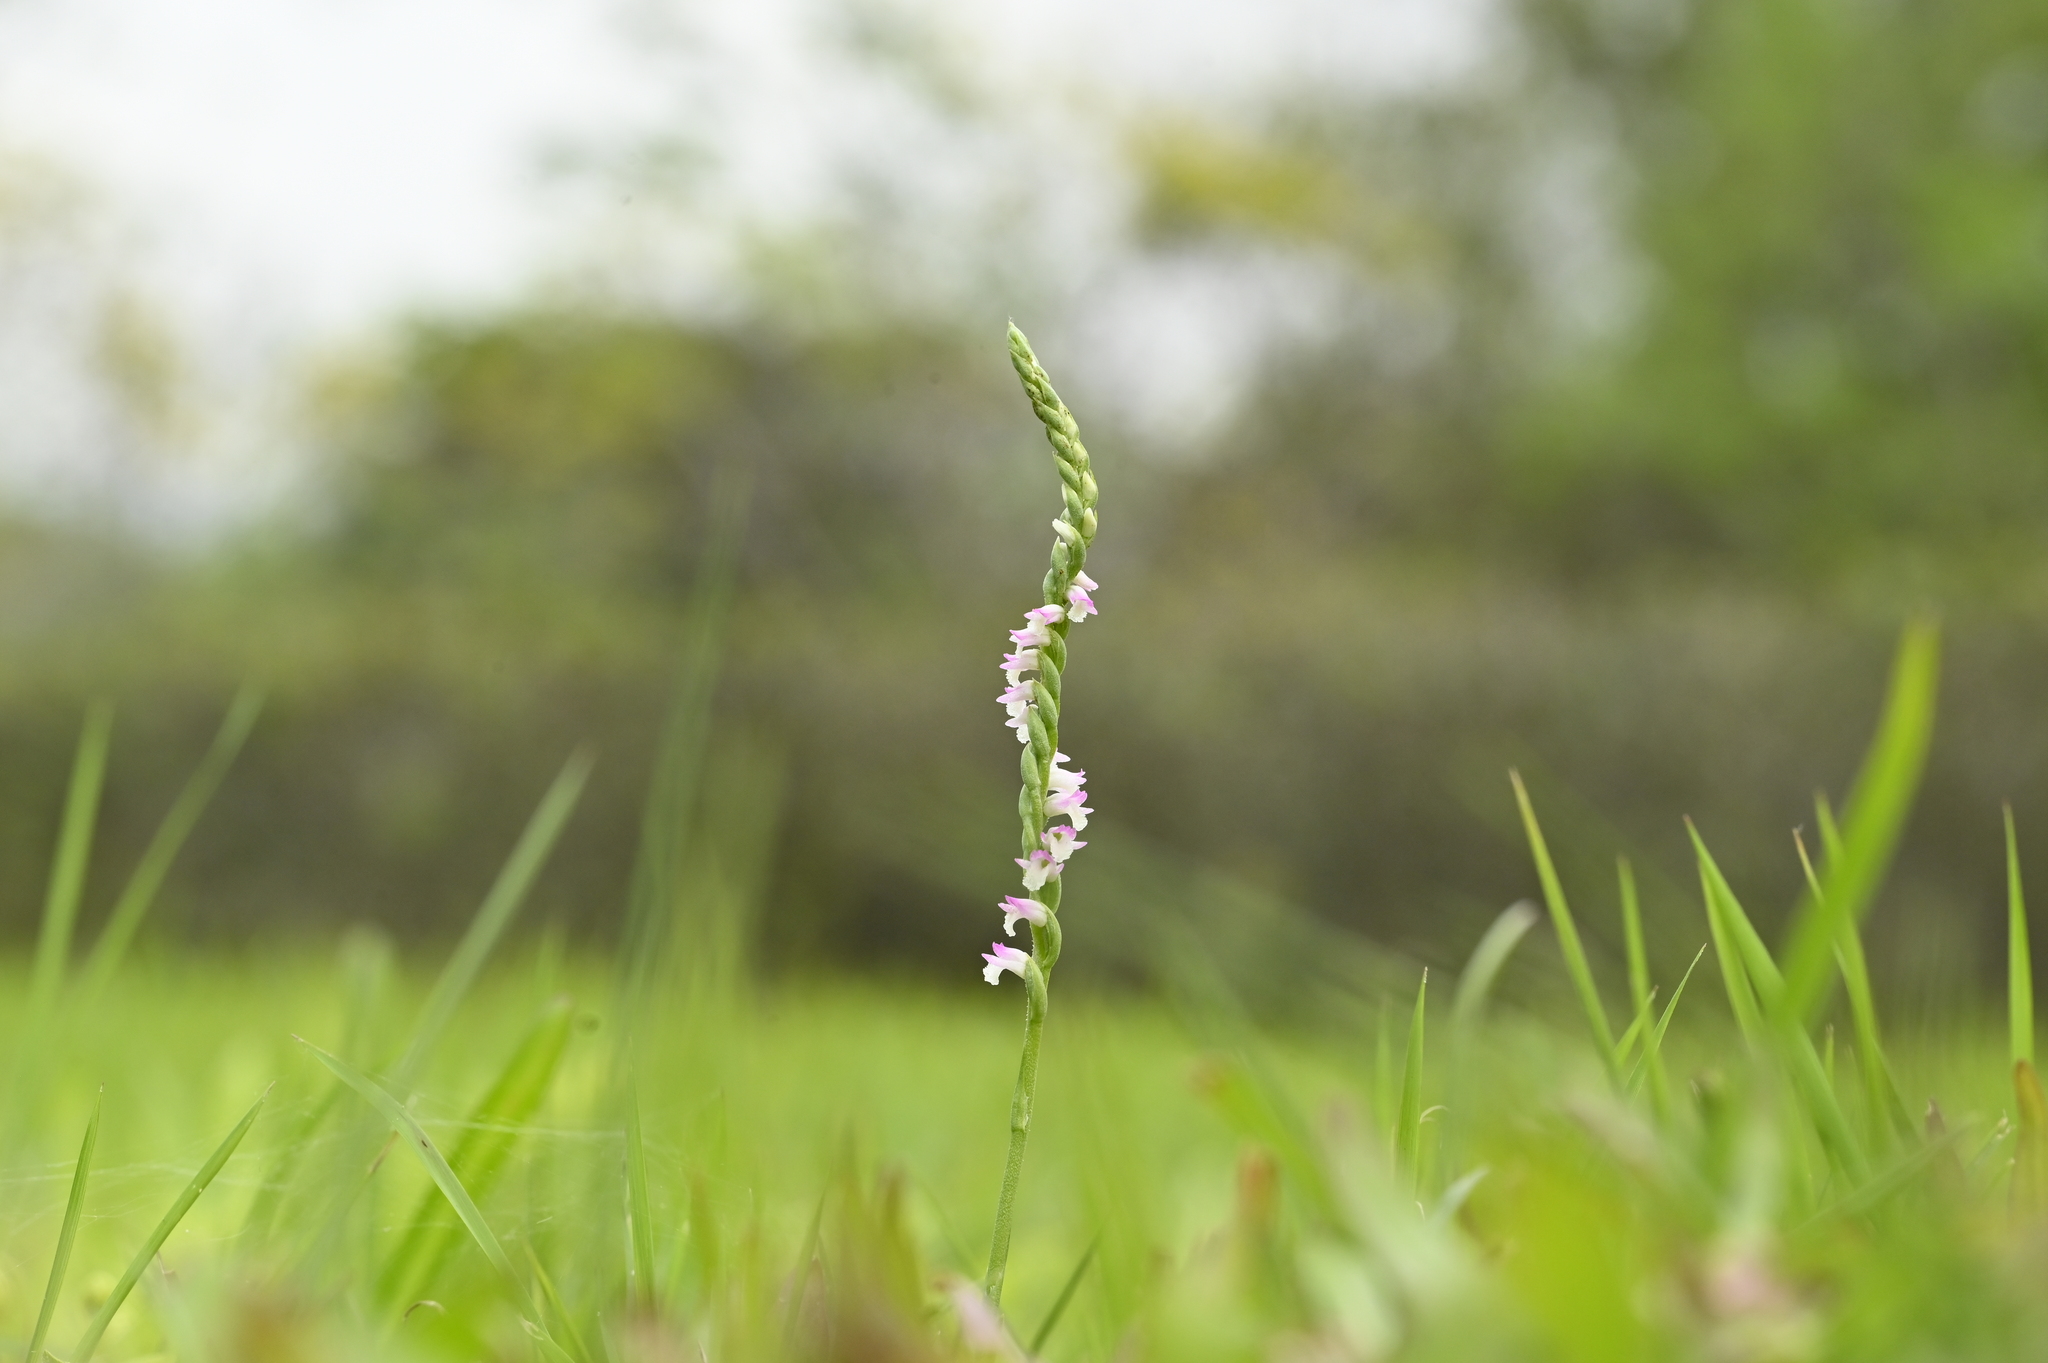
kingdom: Plantae
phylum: Tracheophyta
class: Liliopsida
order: Asparagales
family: Orchidaceae
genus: Spiranthes
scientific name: Spiranthes sinensis
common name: Chinese spiranthes
